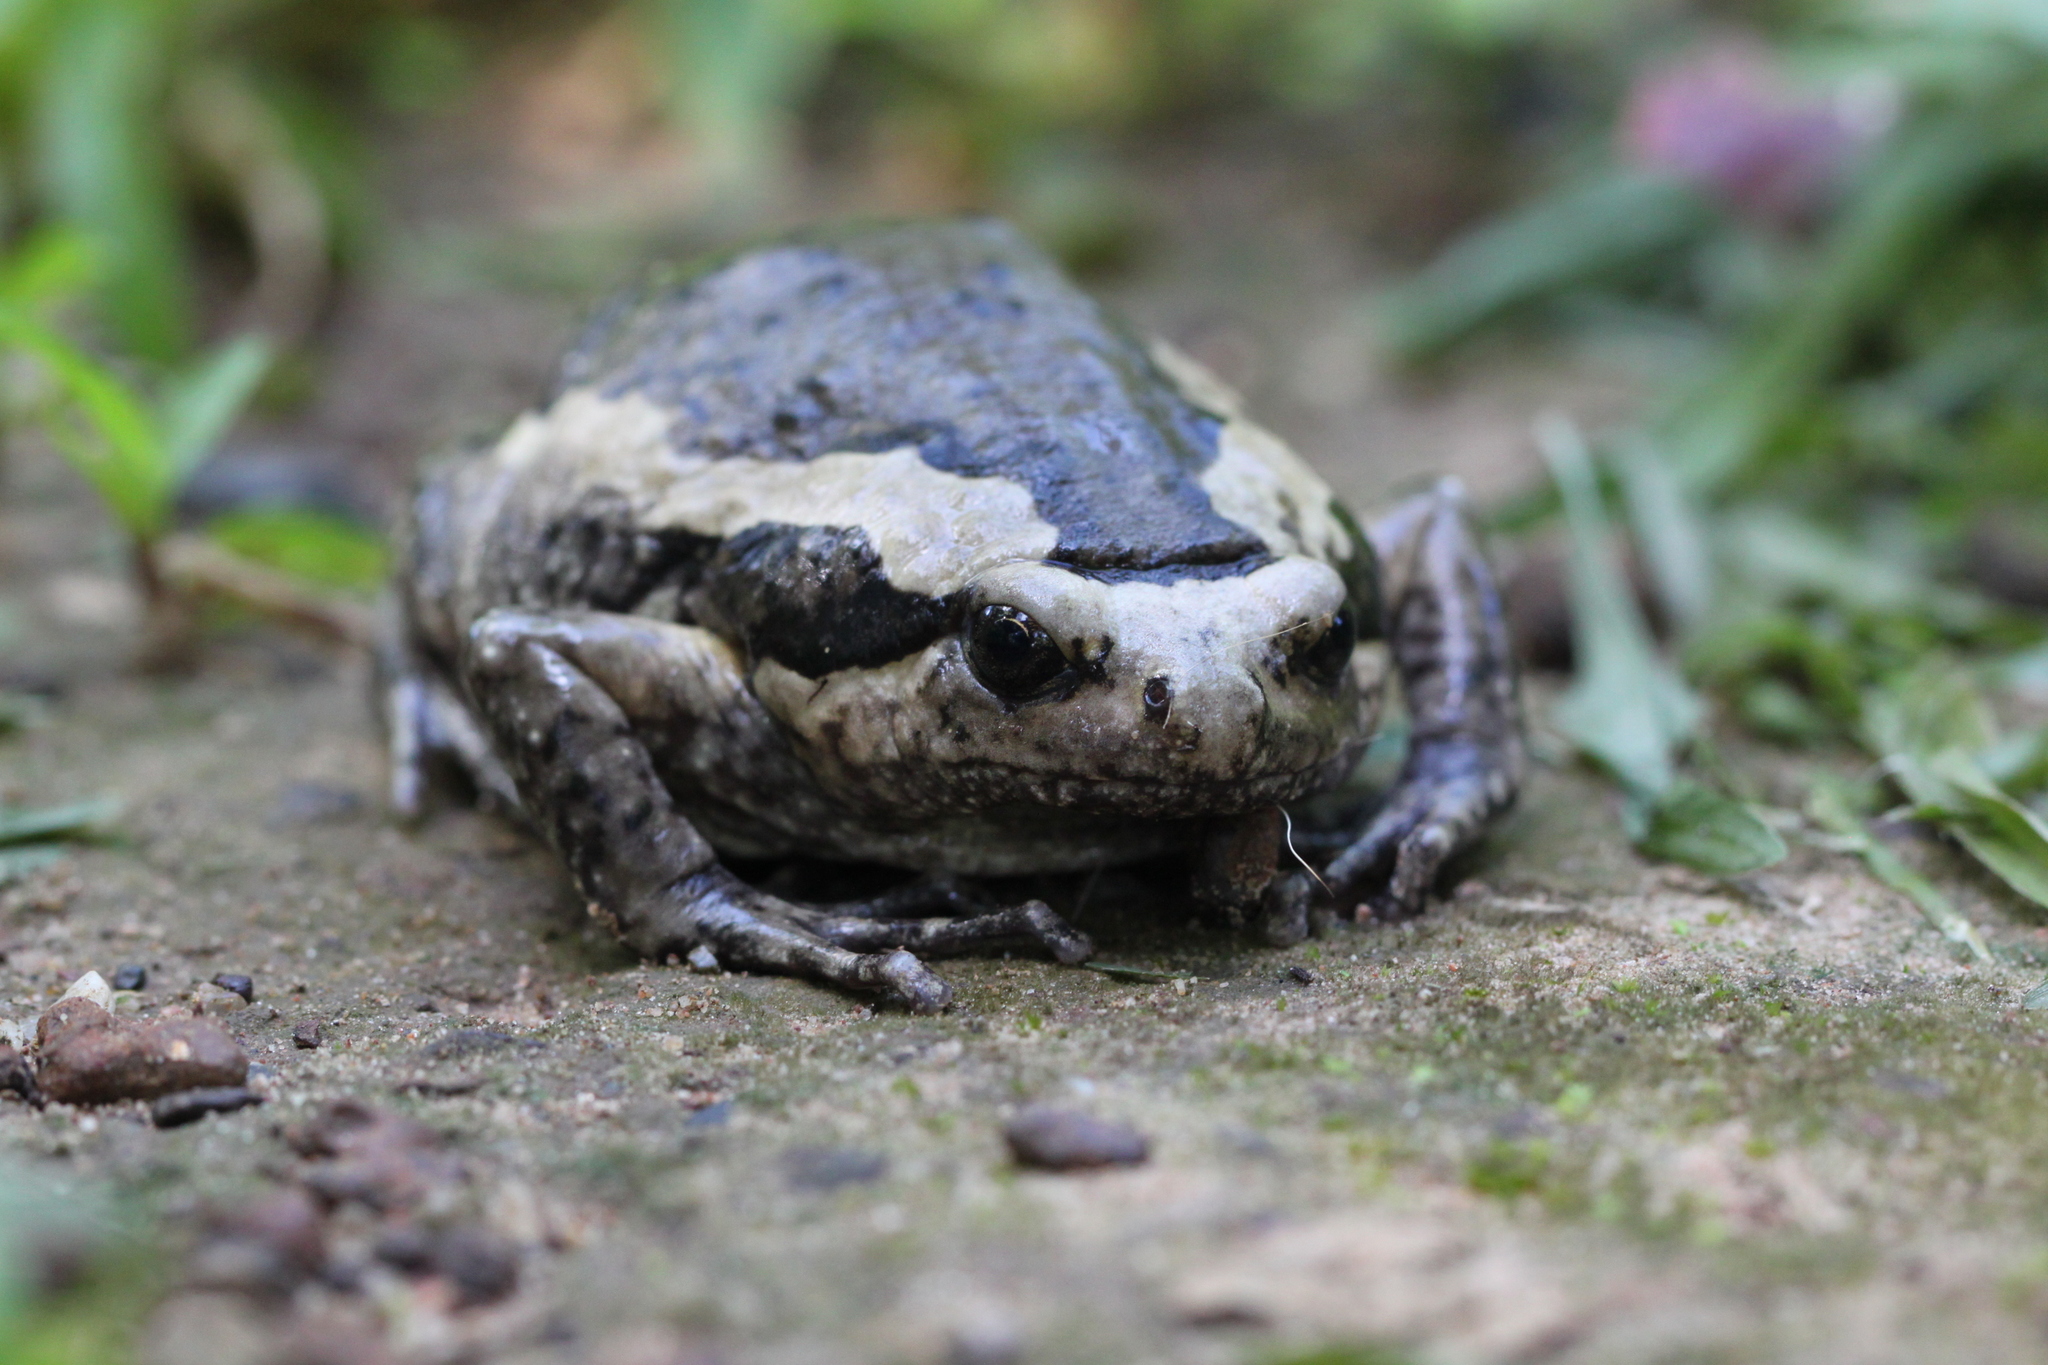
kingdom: Animalia
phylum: Chordata
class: Amphibia
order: Anura
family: Microhylidae
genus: Kaloula
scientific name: Kaloula pulchra
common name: Common,banded bullfrog
